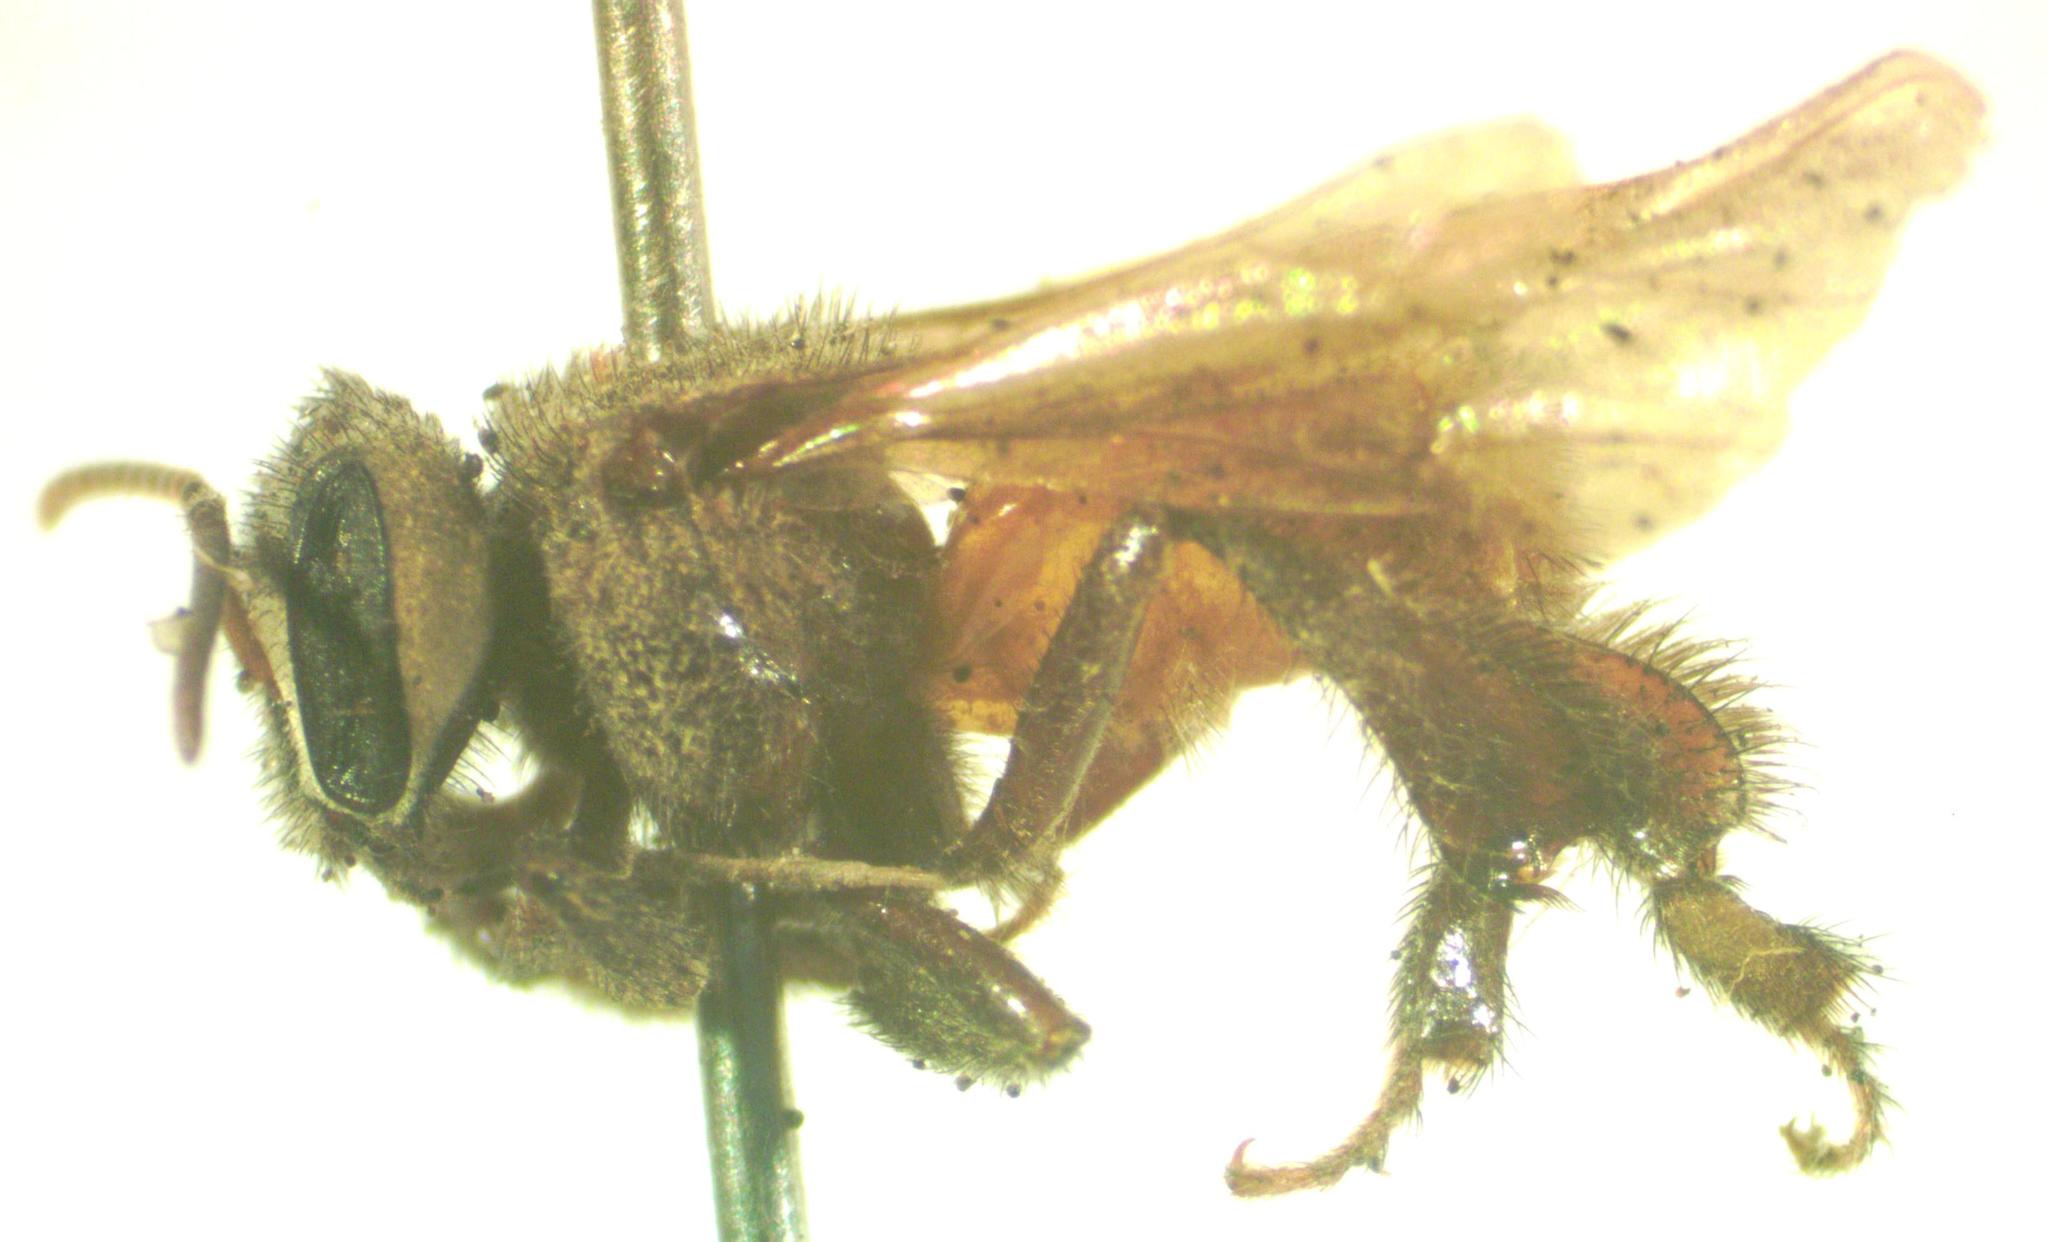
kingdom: Animalia
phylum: Arthropoda
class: Insecta
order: Hymenoptera
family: Apidae
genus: Trigona
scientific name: Trigona fulviventris
